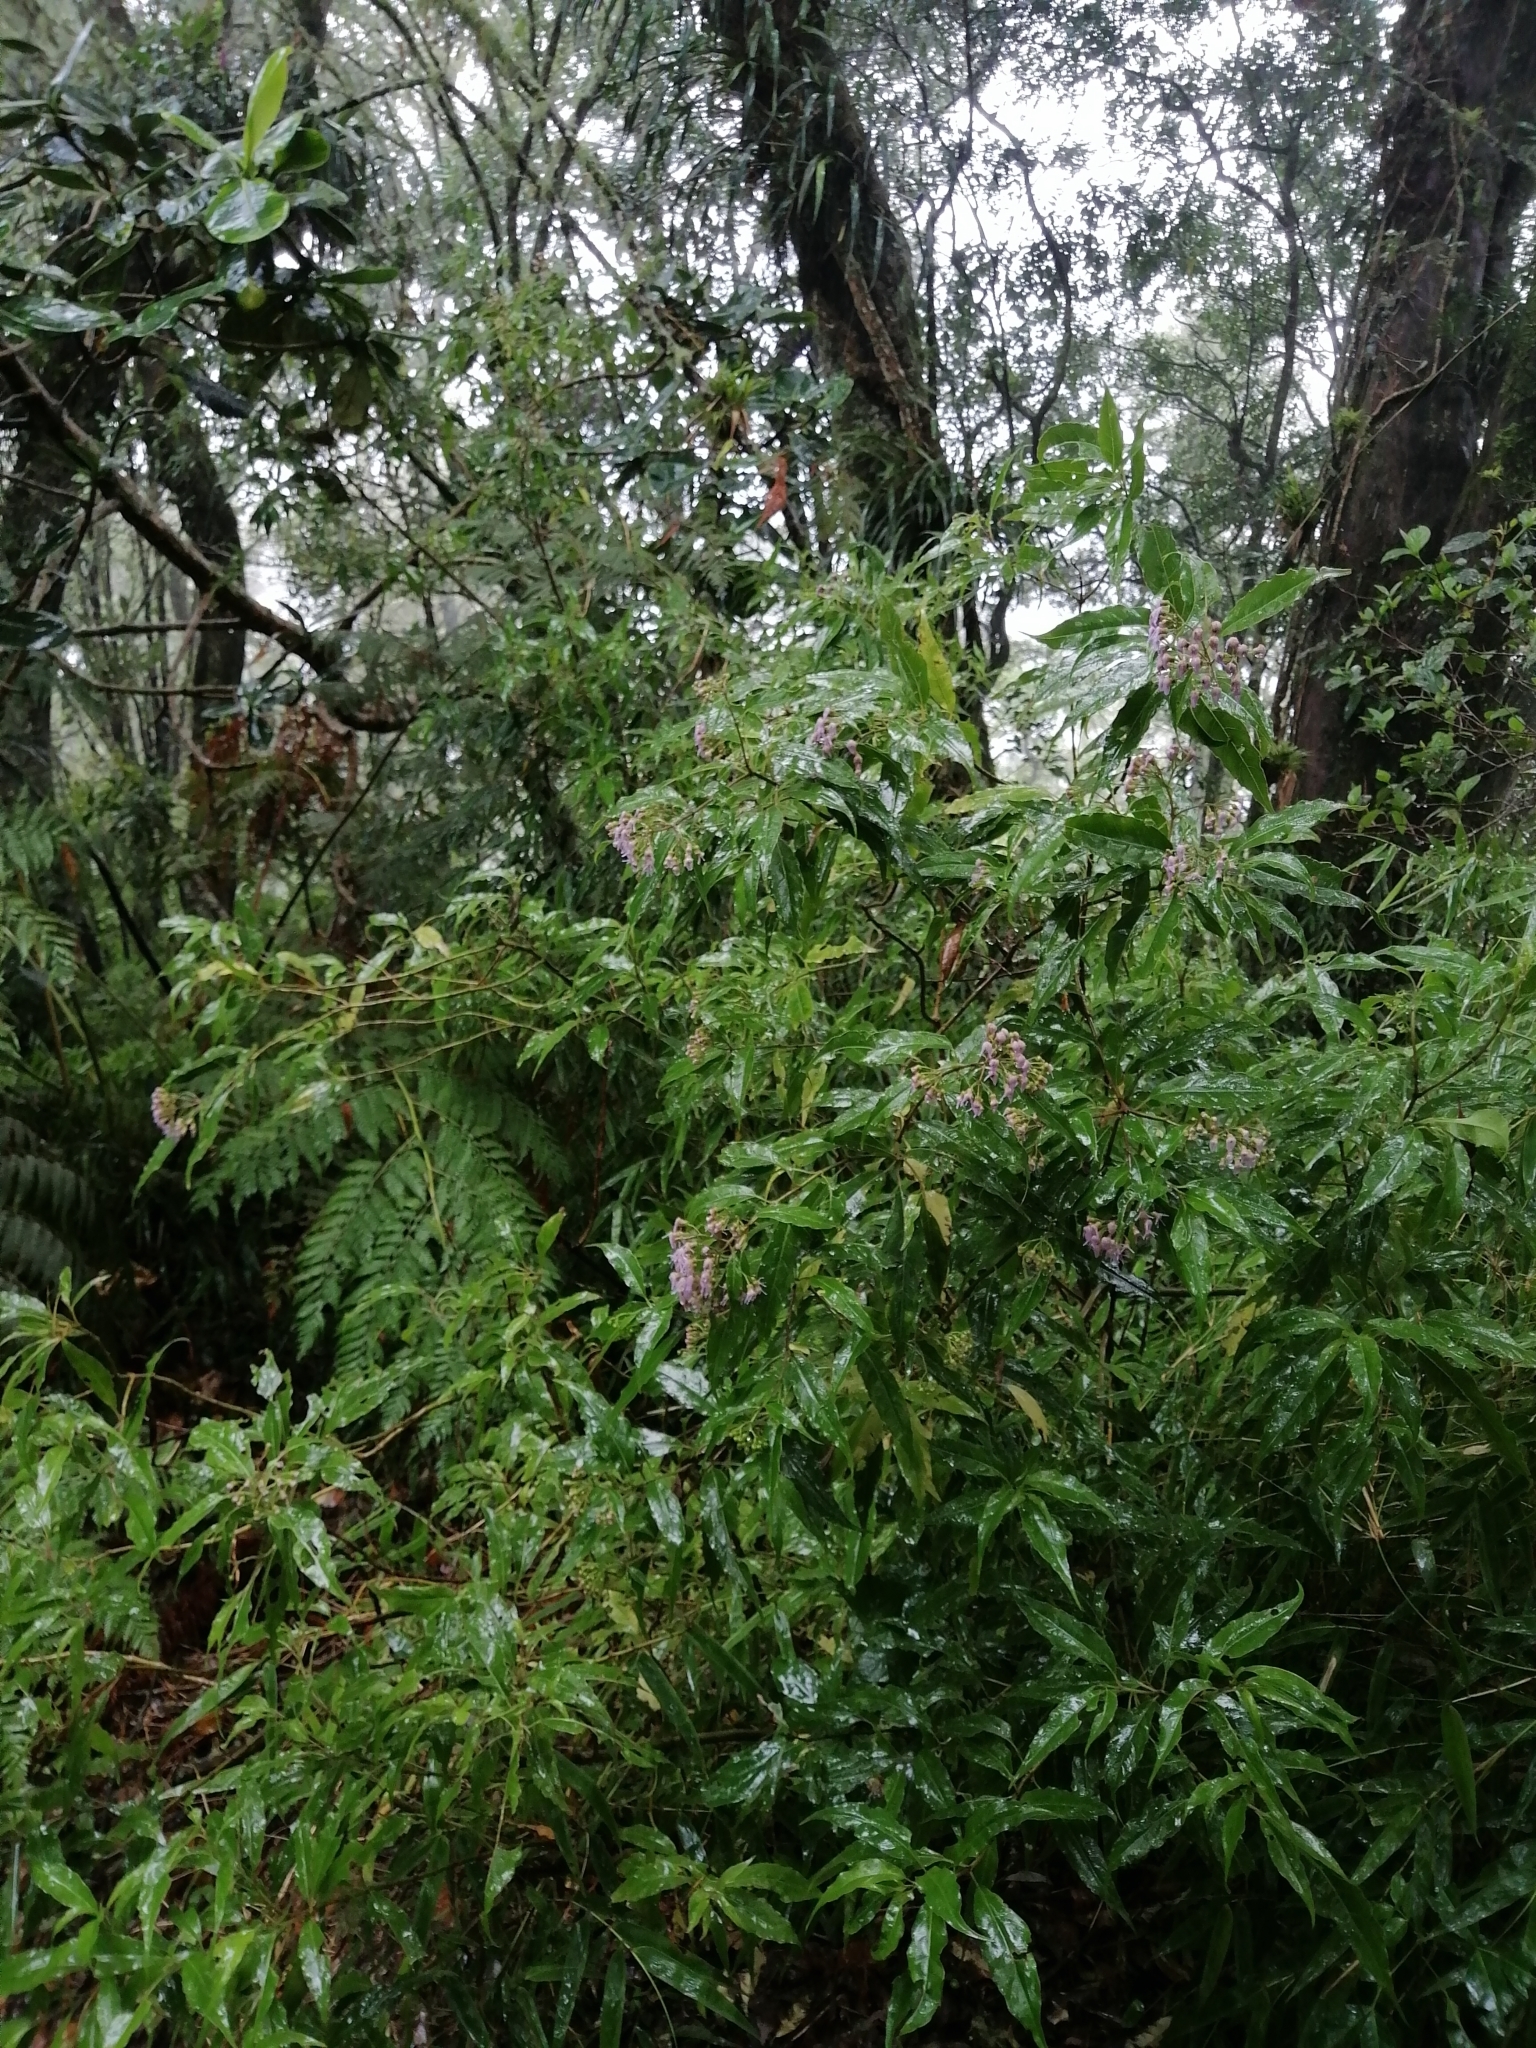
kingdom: Plantae
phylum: Tracheophyta
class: Magnoliopsida
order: Asterales
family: Asteraceae
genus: Bartlettina
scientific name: Bartlettina tuerckheimii
